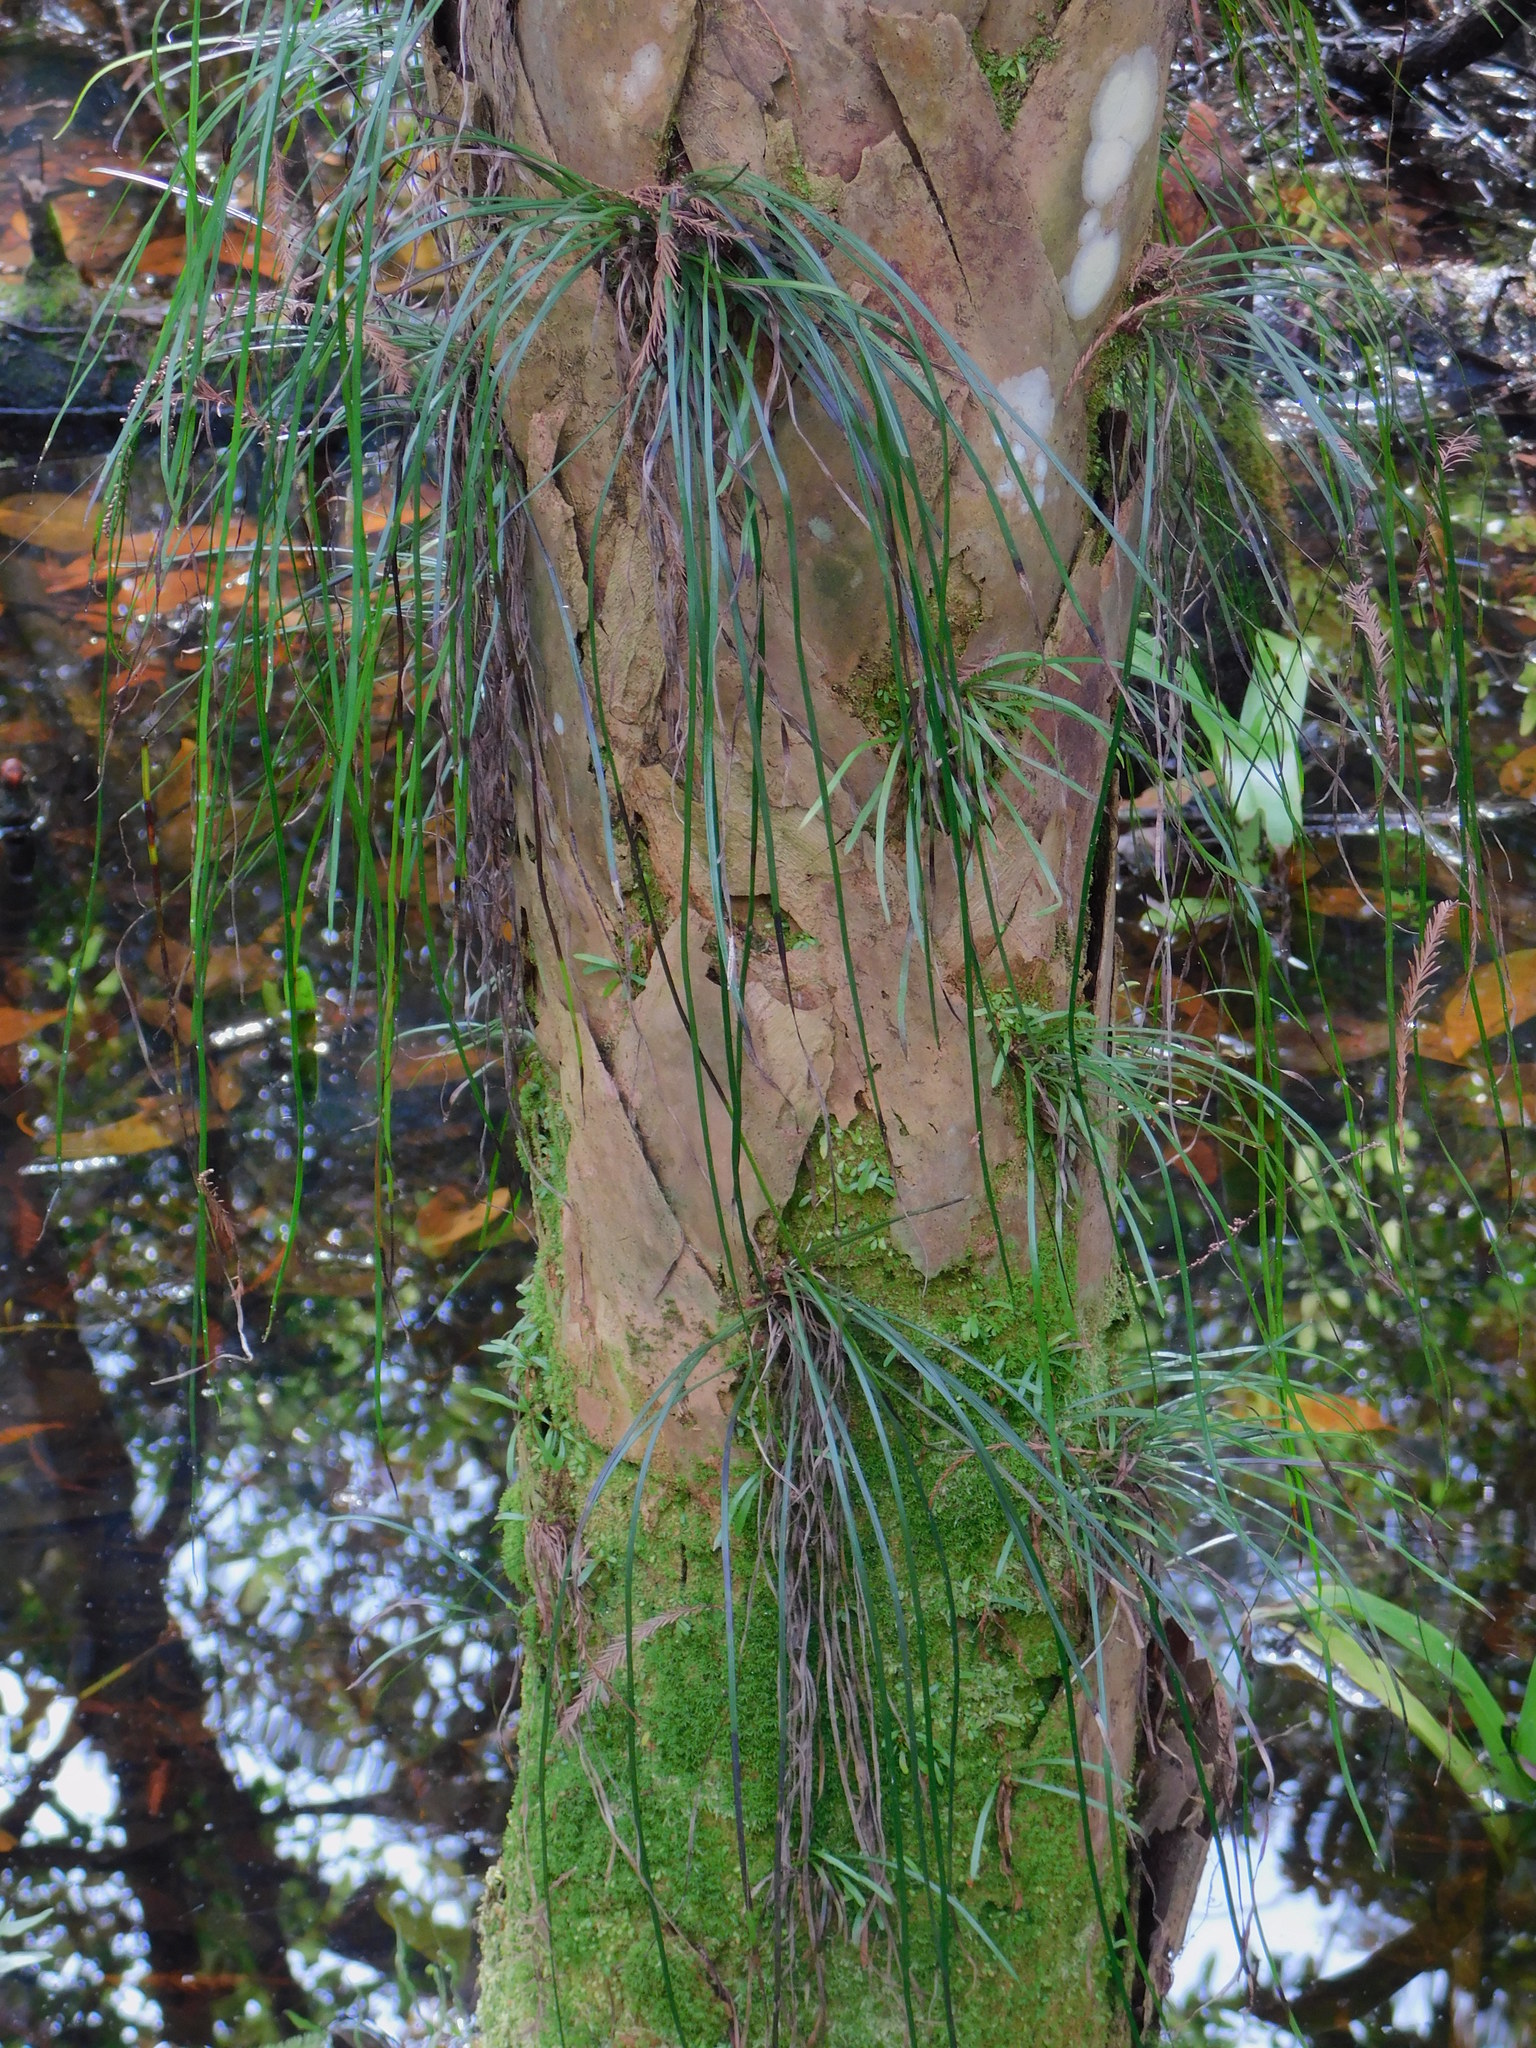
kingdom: Plantae
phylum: Tracheophyta
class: Polypodiopsida
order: Polypodiales
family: Pteridaceae
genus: Vittaria
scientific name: Vittaria lineata
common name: Shoestring fern
